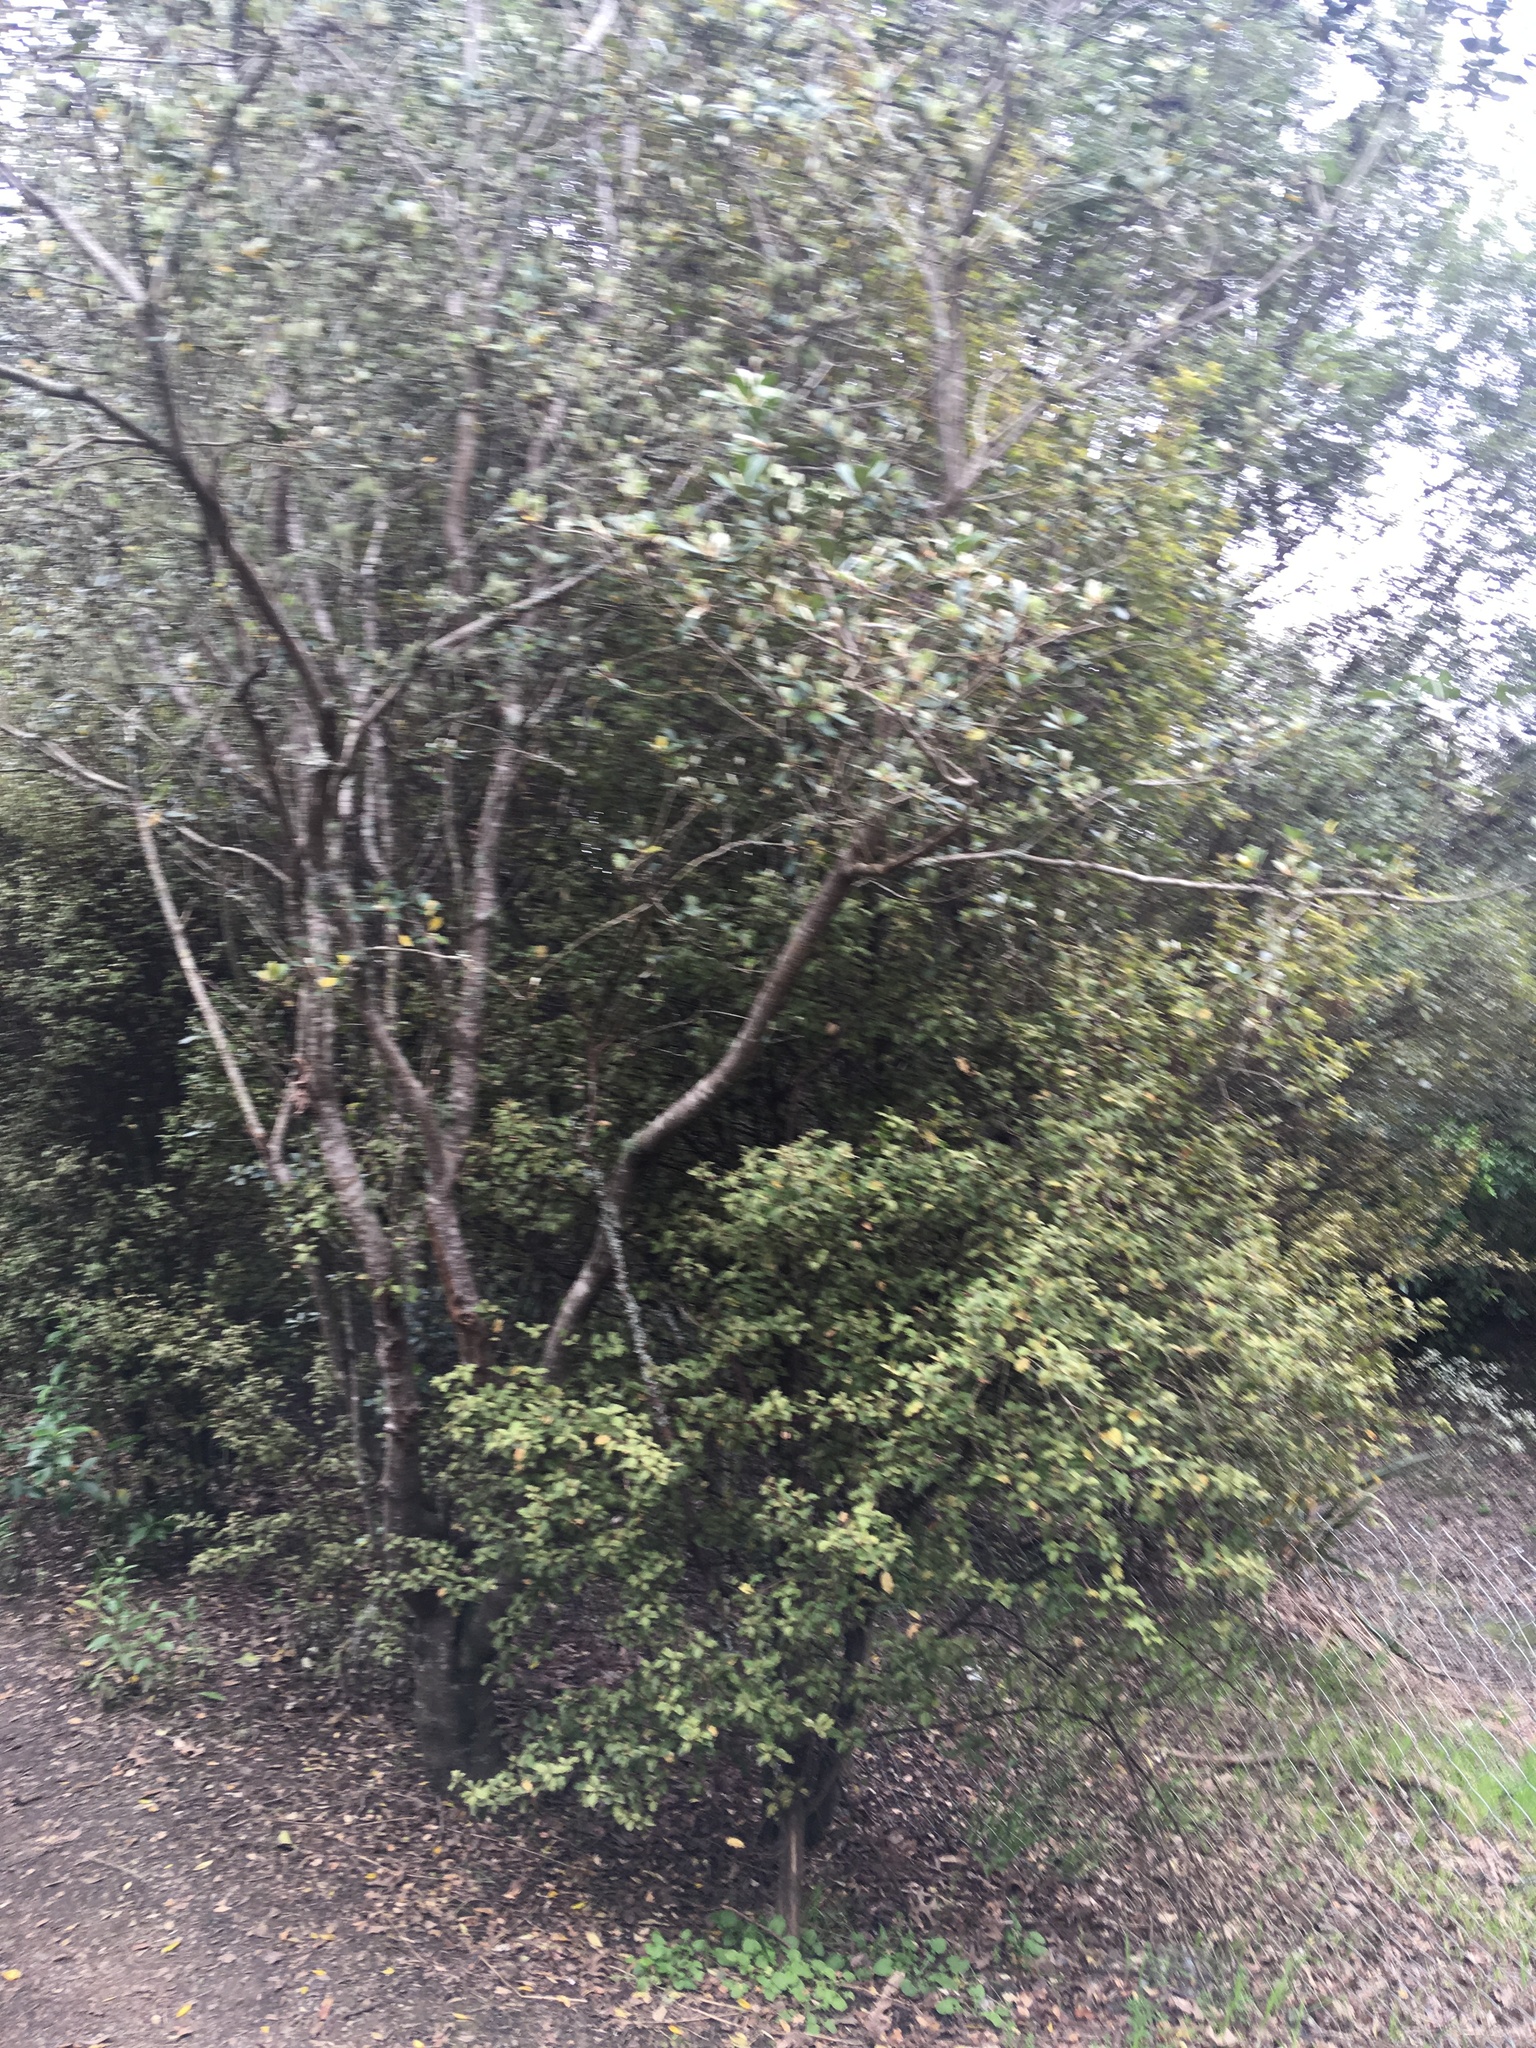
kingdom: Plantae
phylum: Tracheophyta
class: Magnoliopsida
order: Apiales
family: Pittosporaceae
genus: Pittosporum
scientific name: Pittosporum crassifolium
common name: Karo
